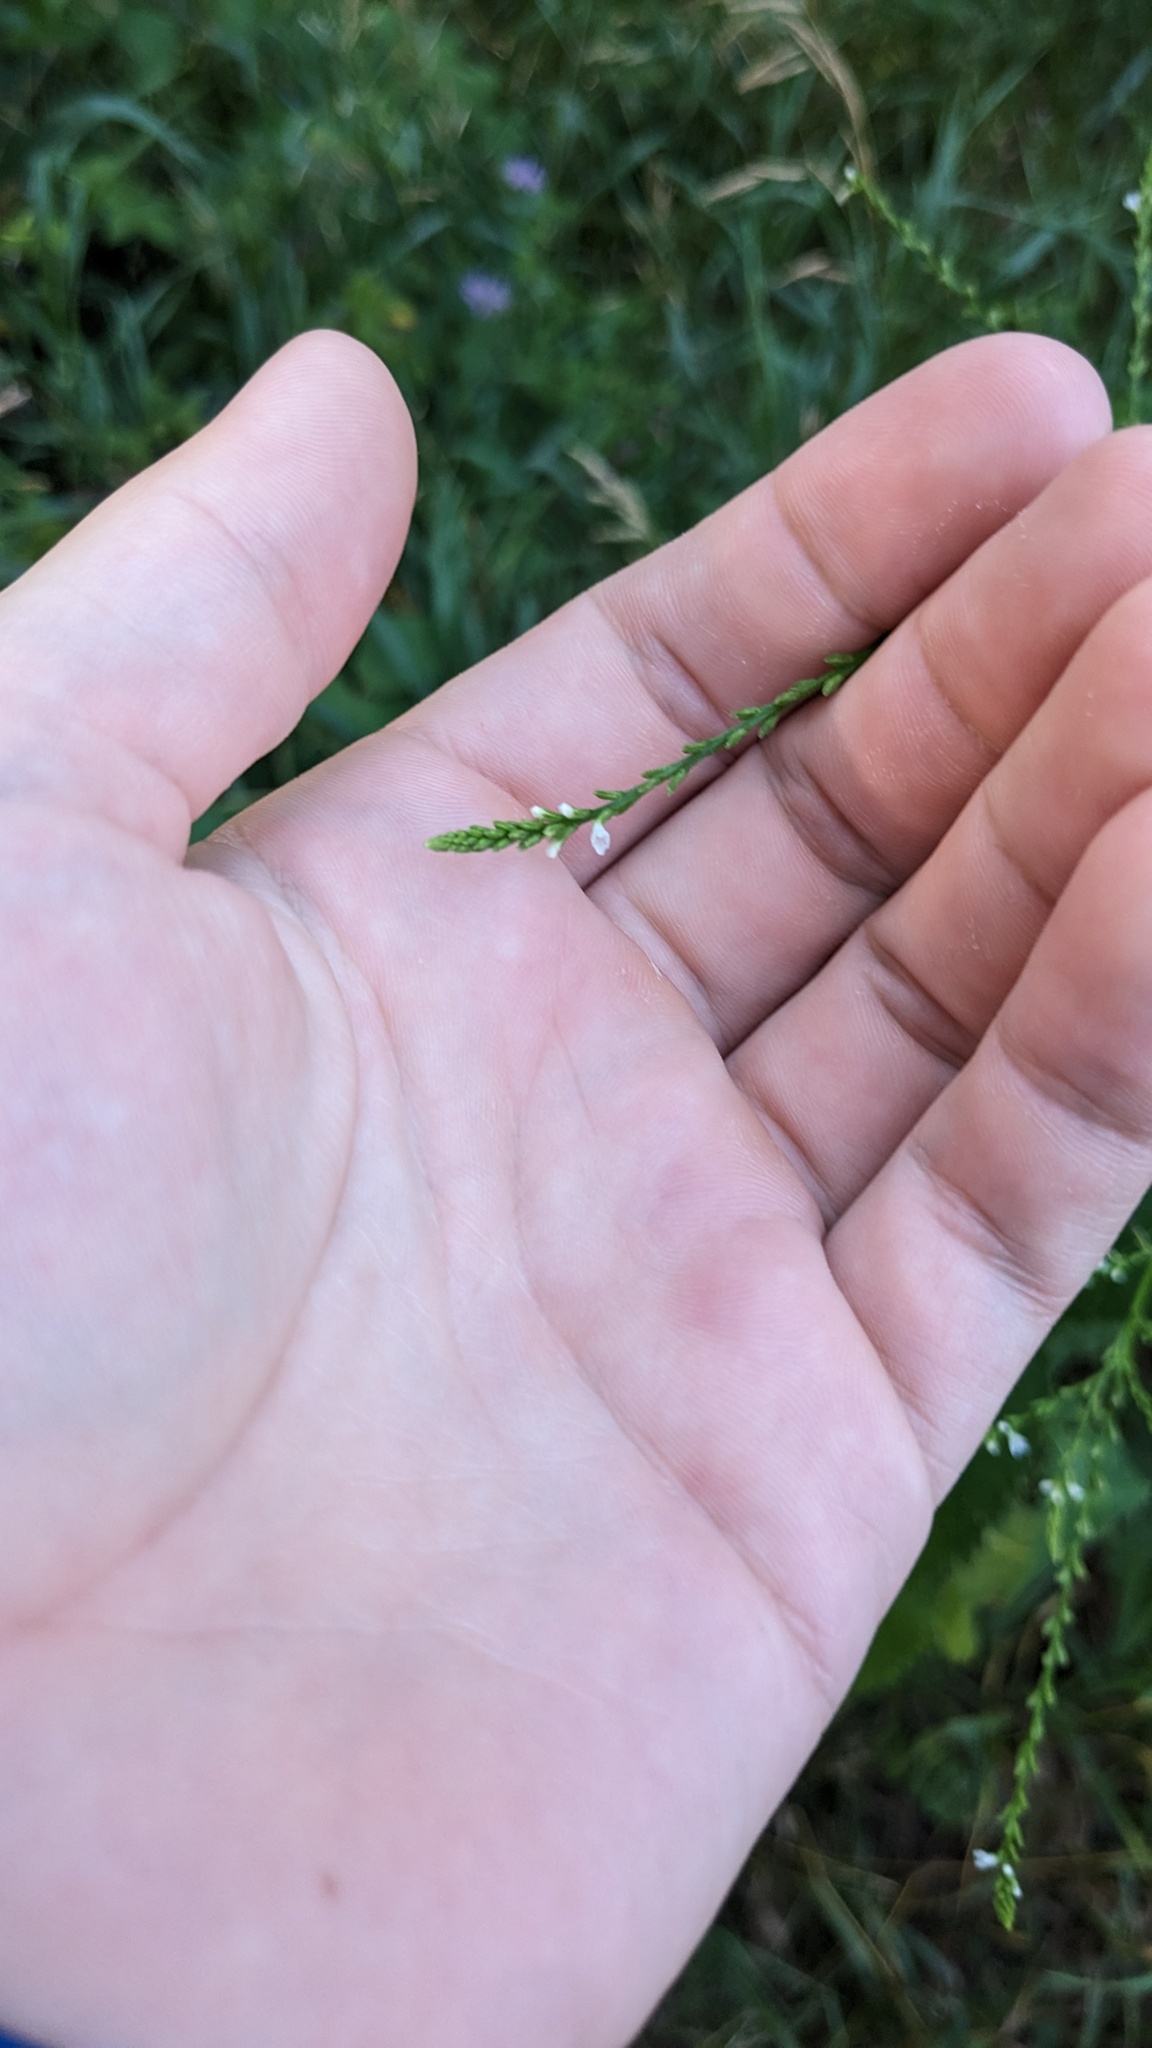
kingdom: Plantae
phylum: Tracheophyta
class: Magnoliopsida
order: Lamiales
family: Verbenaceae
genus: Verbena
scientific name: Verbena urticifolia
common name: Nettle-leaved vervain
